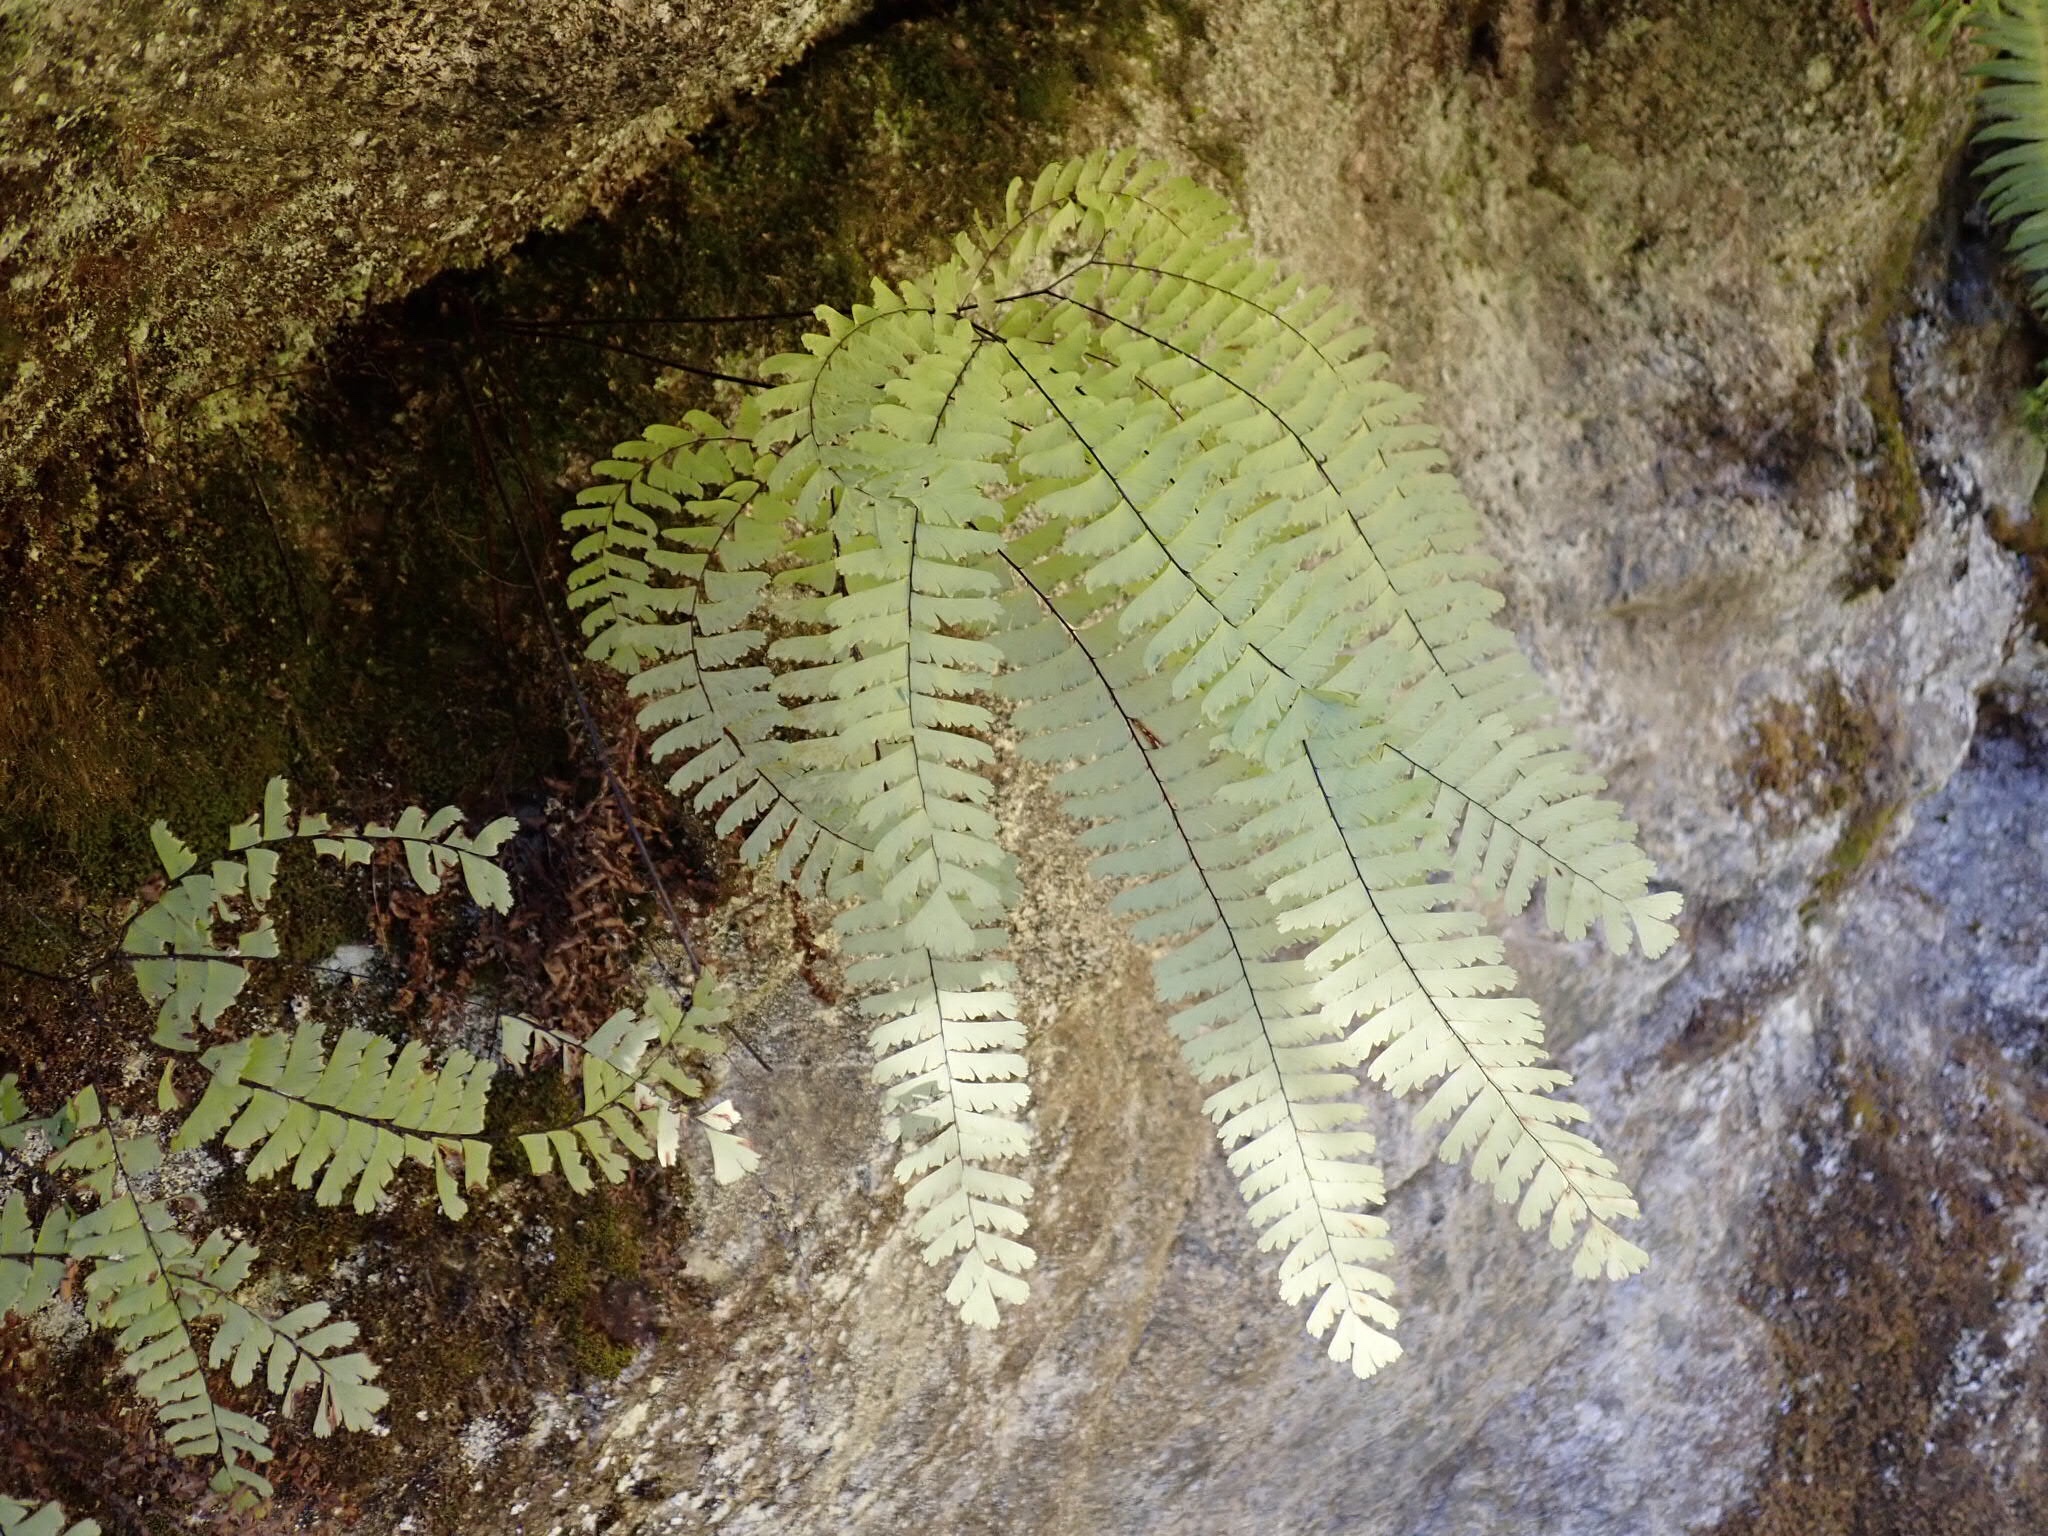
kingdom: Plantae
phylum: Tracheophyta
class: Polypodiopsida
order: Polypodiales
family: Pteridaceae
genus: Adiantum
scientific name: Adiantum aleuticum
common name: Aleutian maidenhair fern
